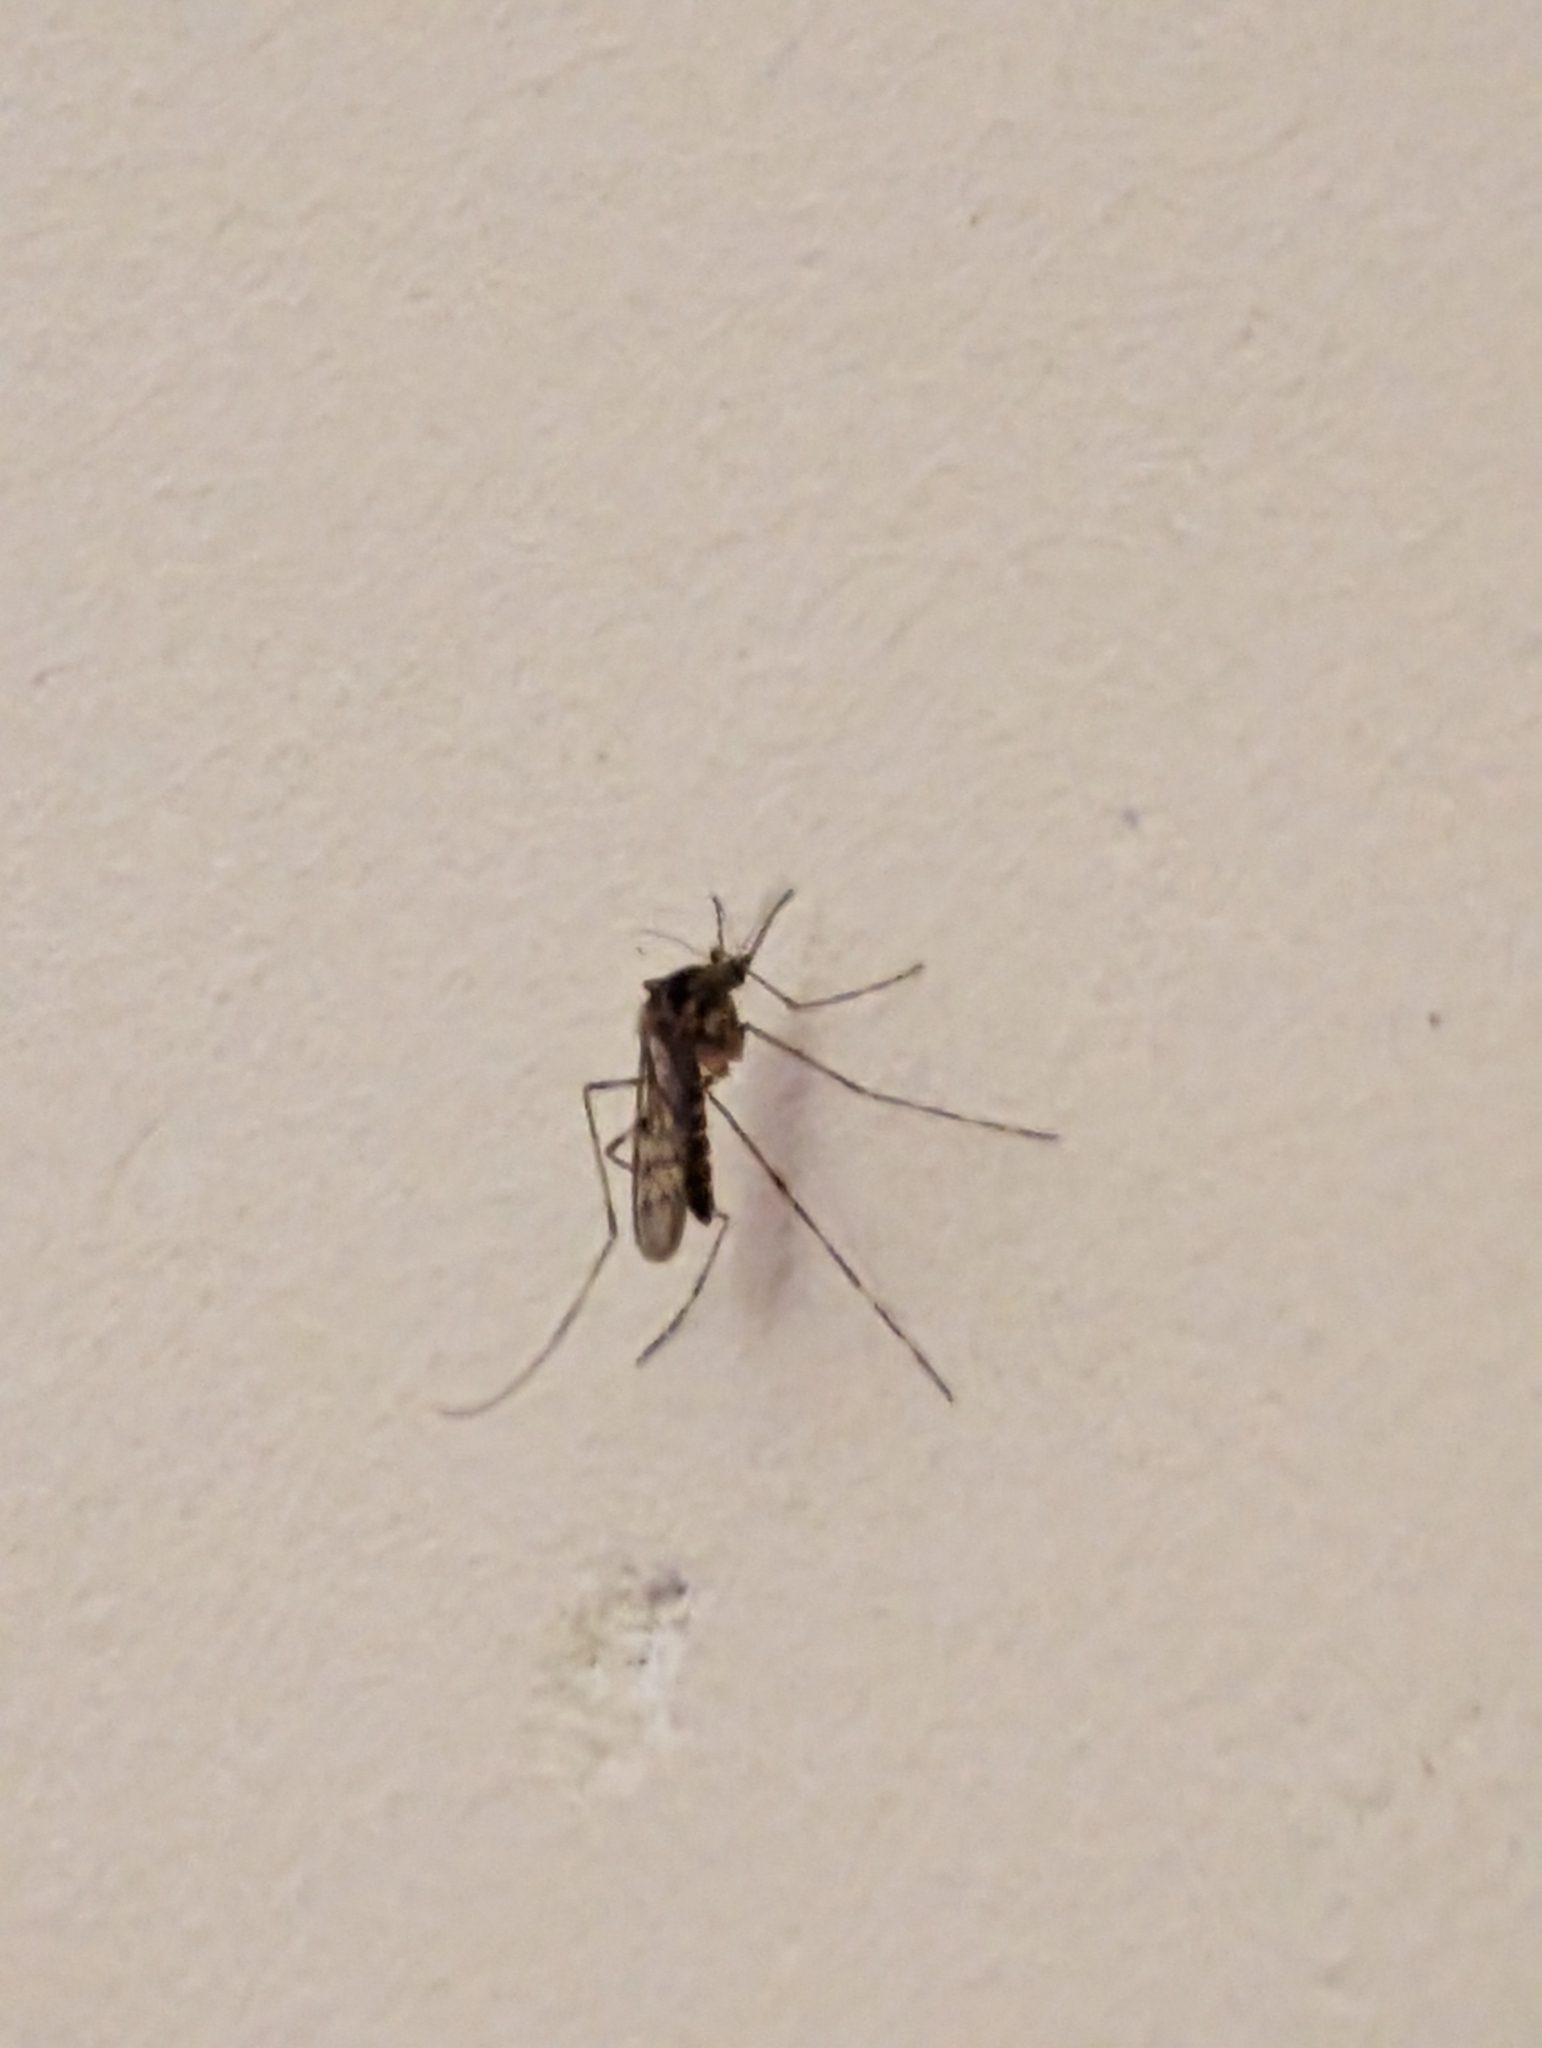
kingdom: Animalia
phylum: Arthropoda
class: Insecta
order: Diptera
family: Culicidae
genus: Culiseta
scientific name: Culiseta annulata
